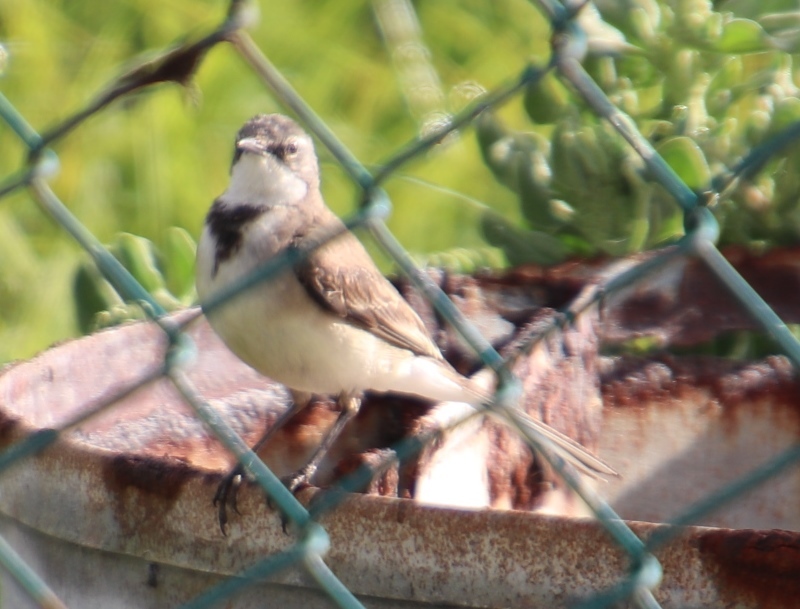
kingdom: Animalia
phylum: Chordata
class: Aves
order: Passeriformes
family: Motacillidae
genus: Motacilla
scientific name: Motacilla capensis
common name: Cape wagtail
